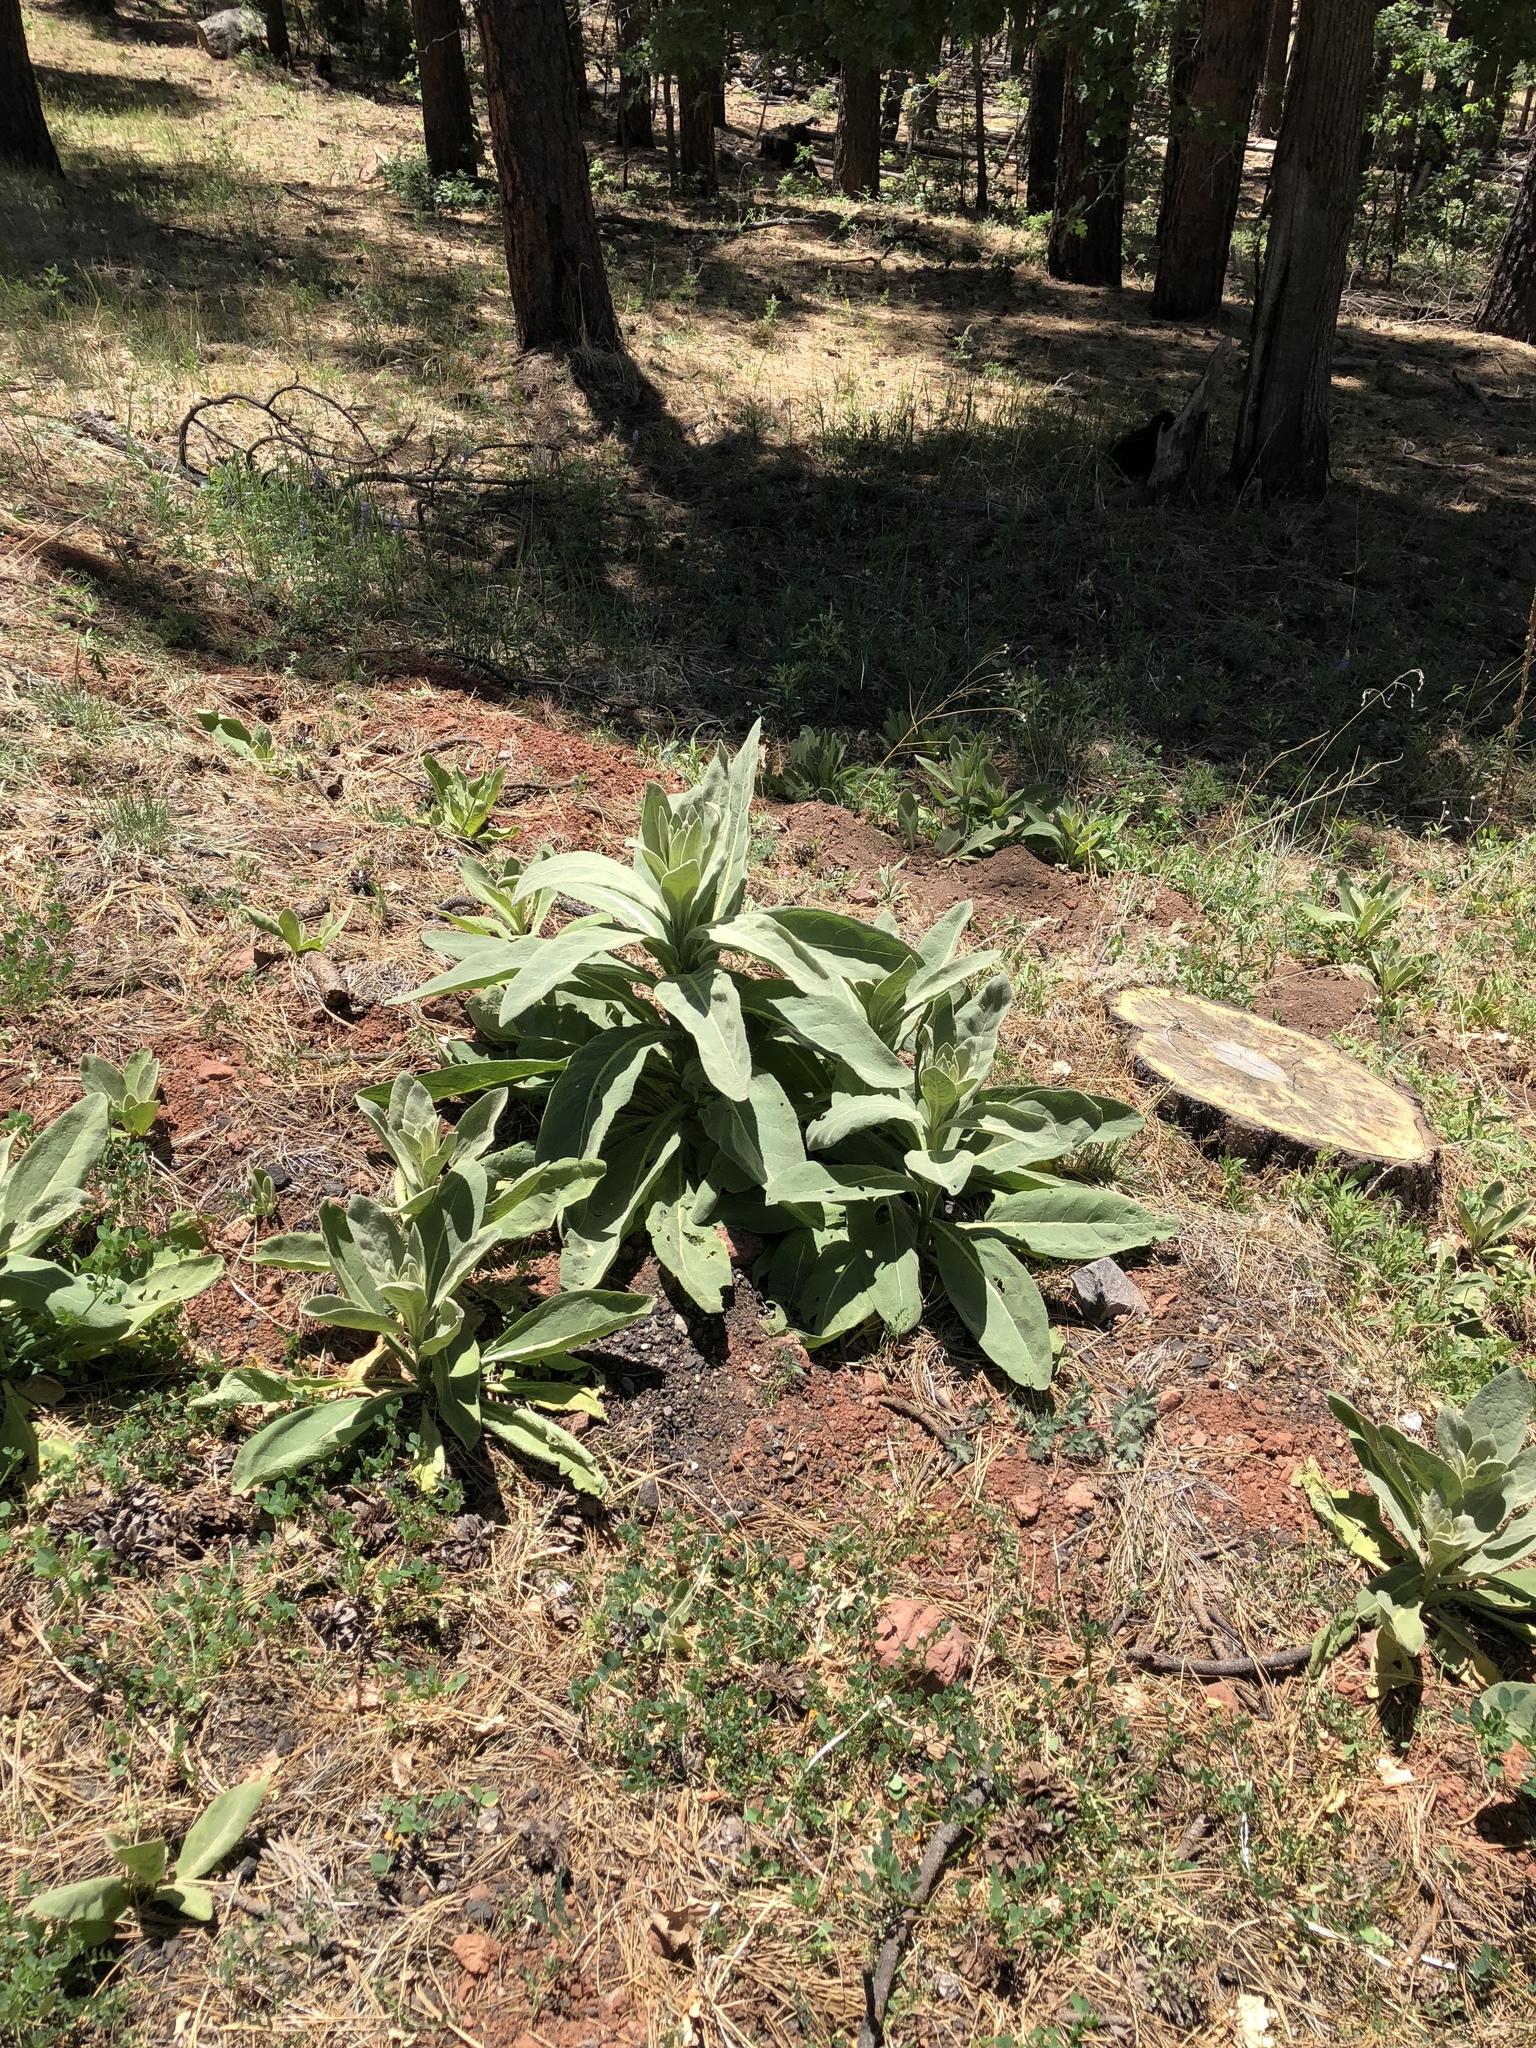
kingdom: Plantae
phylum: Tracheophyta
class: Magnoliopsida
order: Lamiales
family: Scrophulariaceae
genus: Verbascum
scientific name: Verbascum thapsus
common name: Common mullein
